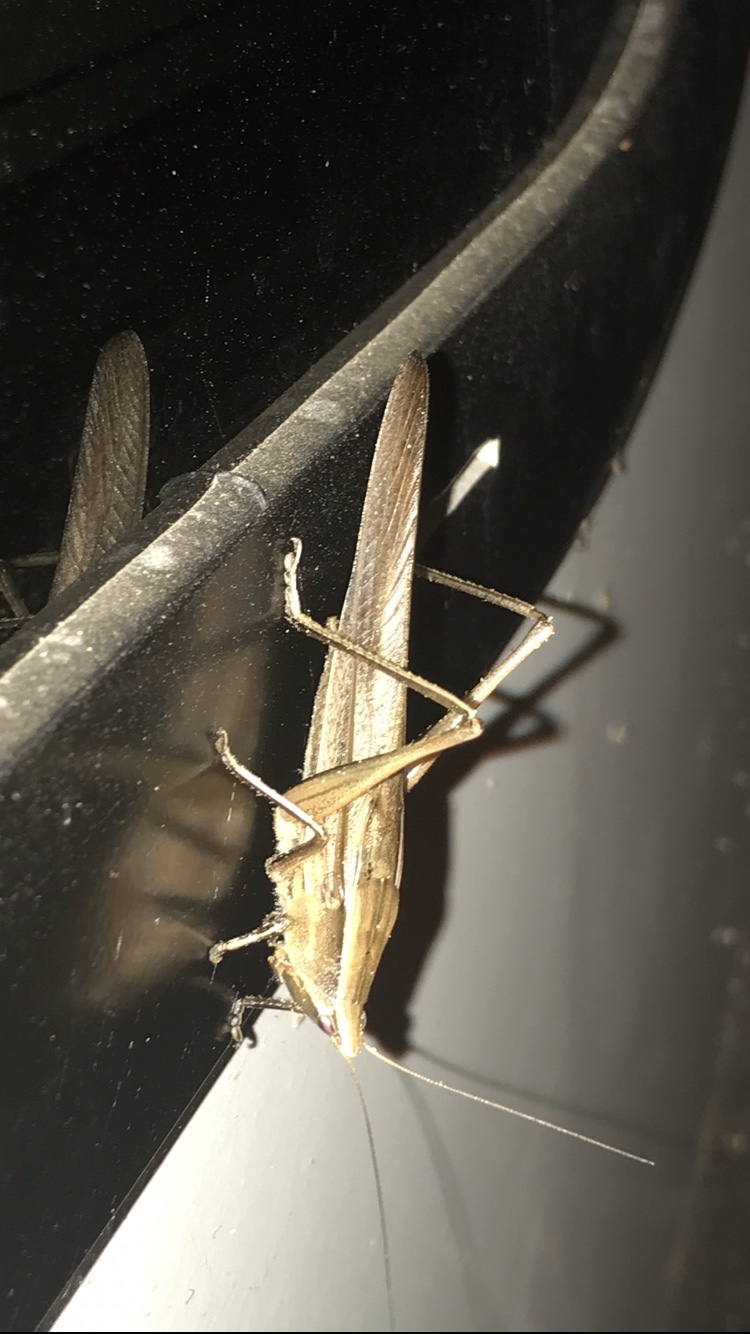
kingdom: Animalia
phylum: Arthropoda
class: Insecta
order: Orthoptera
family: Tettigoniidae
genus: Neoconocephalus
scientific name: Neoconocephalus triops
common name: Broad-tipped conehead
